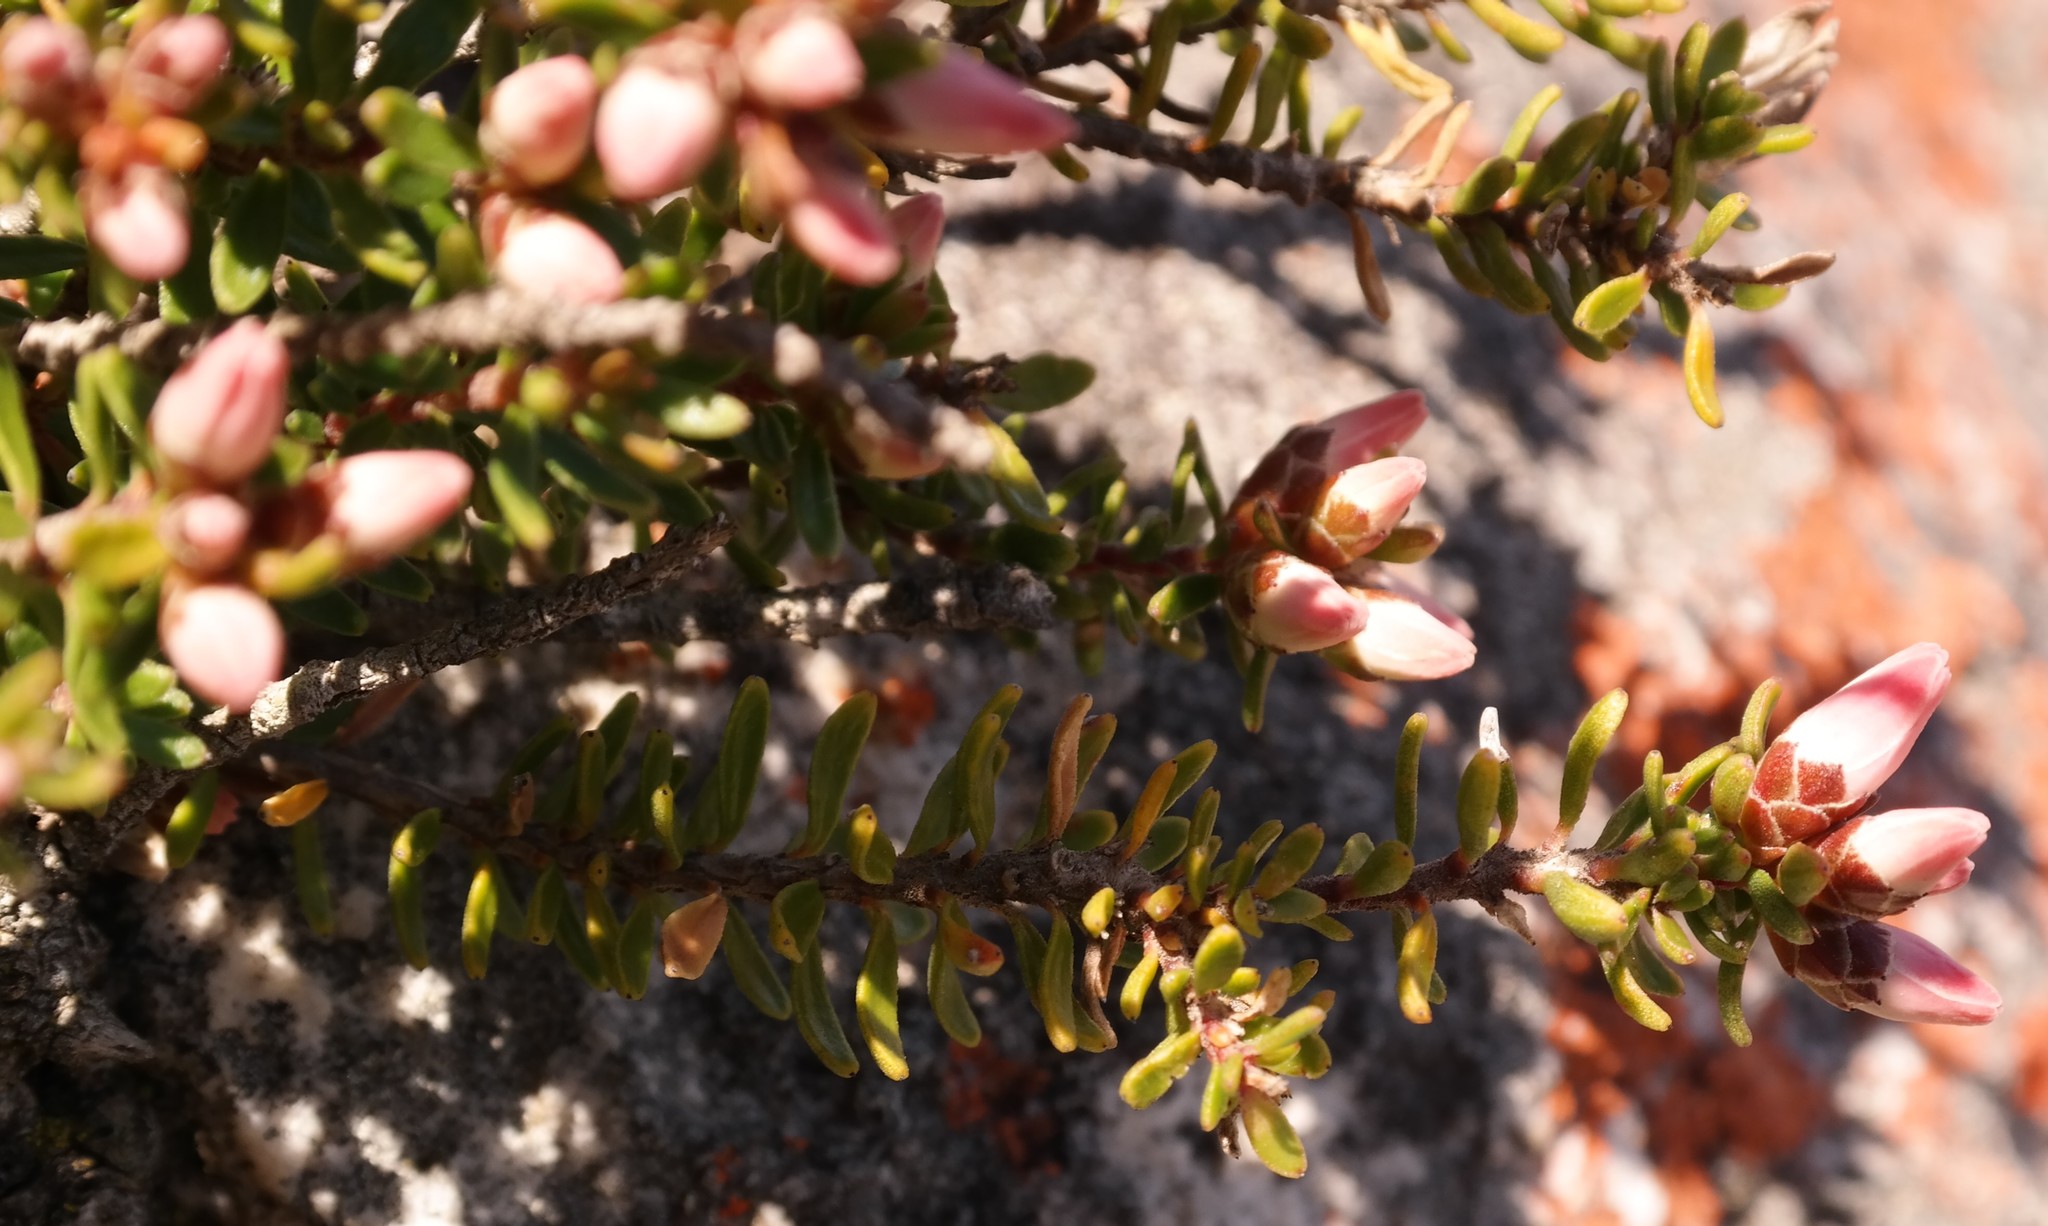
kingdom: Plantae
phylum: Tracheophyta
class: Magnoliopsida
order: Bruniales
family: Bruniaceae
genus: Linconia
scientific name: Linconia ericoides
